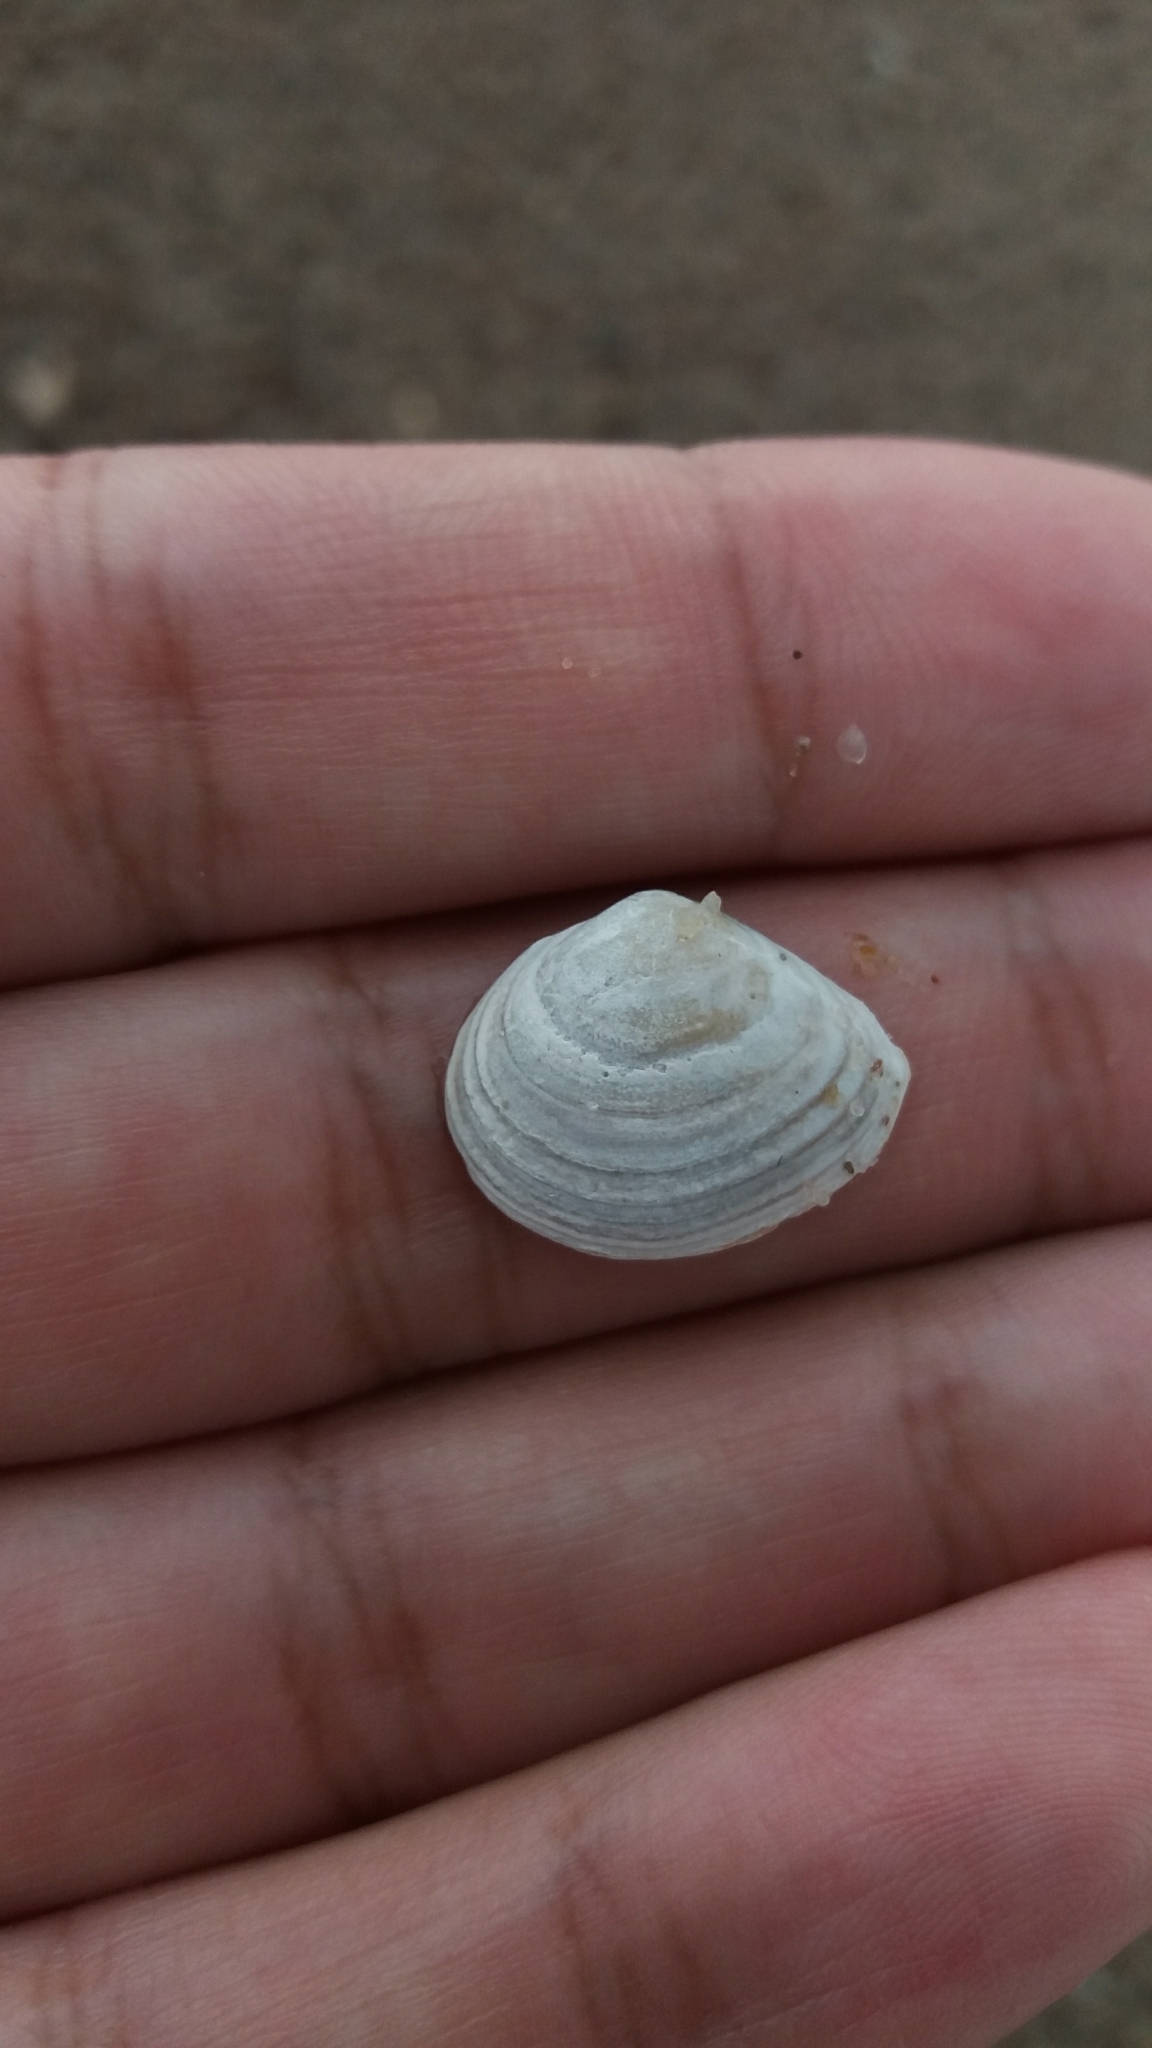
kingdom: Animalia
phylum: Mollusca
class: Bivalvia
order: Cardiida
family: Tellinidae
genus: Macoma
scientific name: Macoma balthica
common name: Baltic tellin
